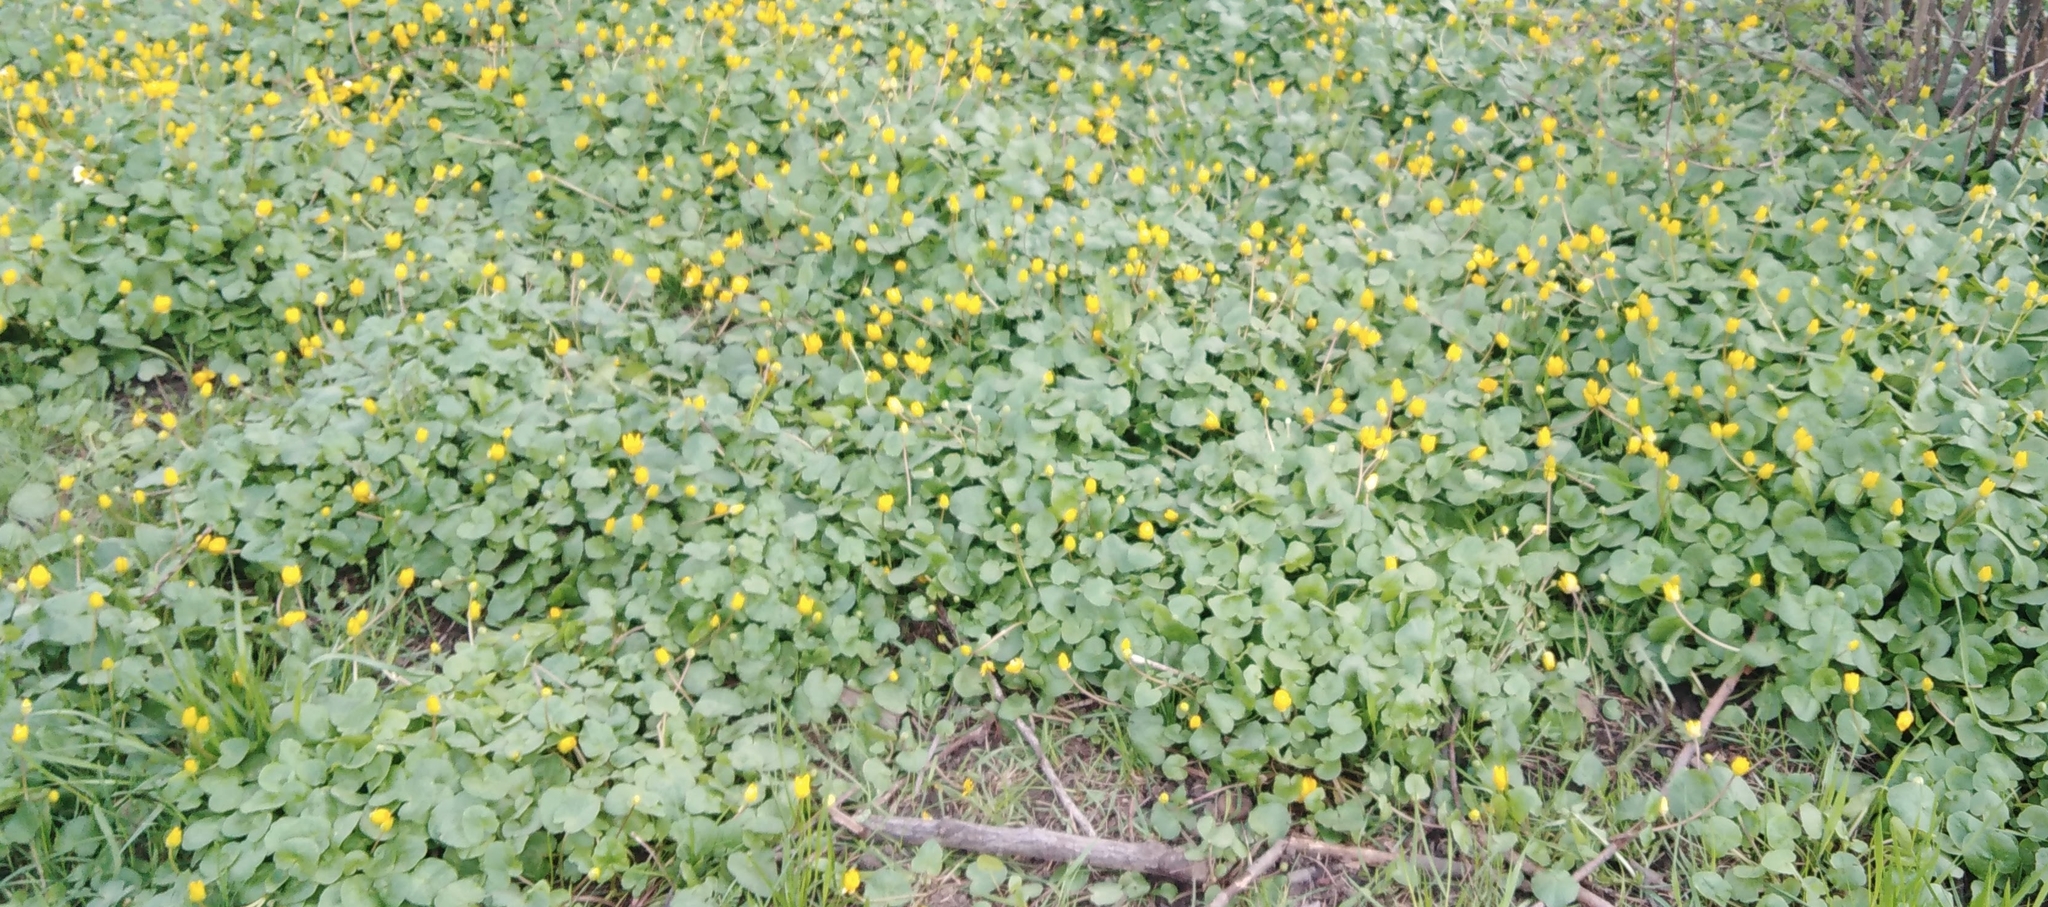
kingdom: Plantae
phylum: Tracheophyta
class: Magnoliopsida
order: Ranunculales
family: Ranunculaceae
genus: Ficaria
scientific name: Ficaria verna
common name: Lesser celandine
